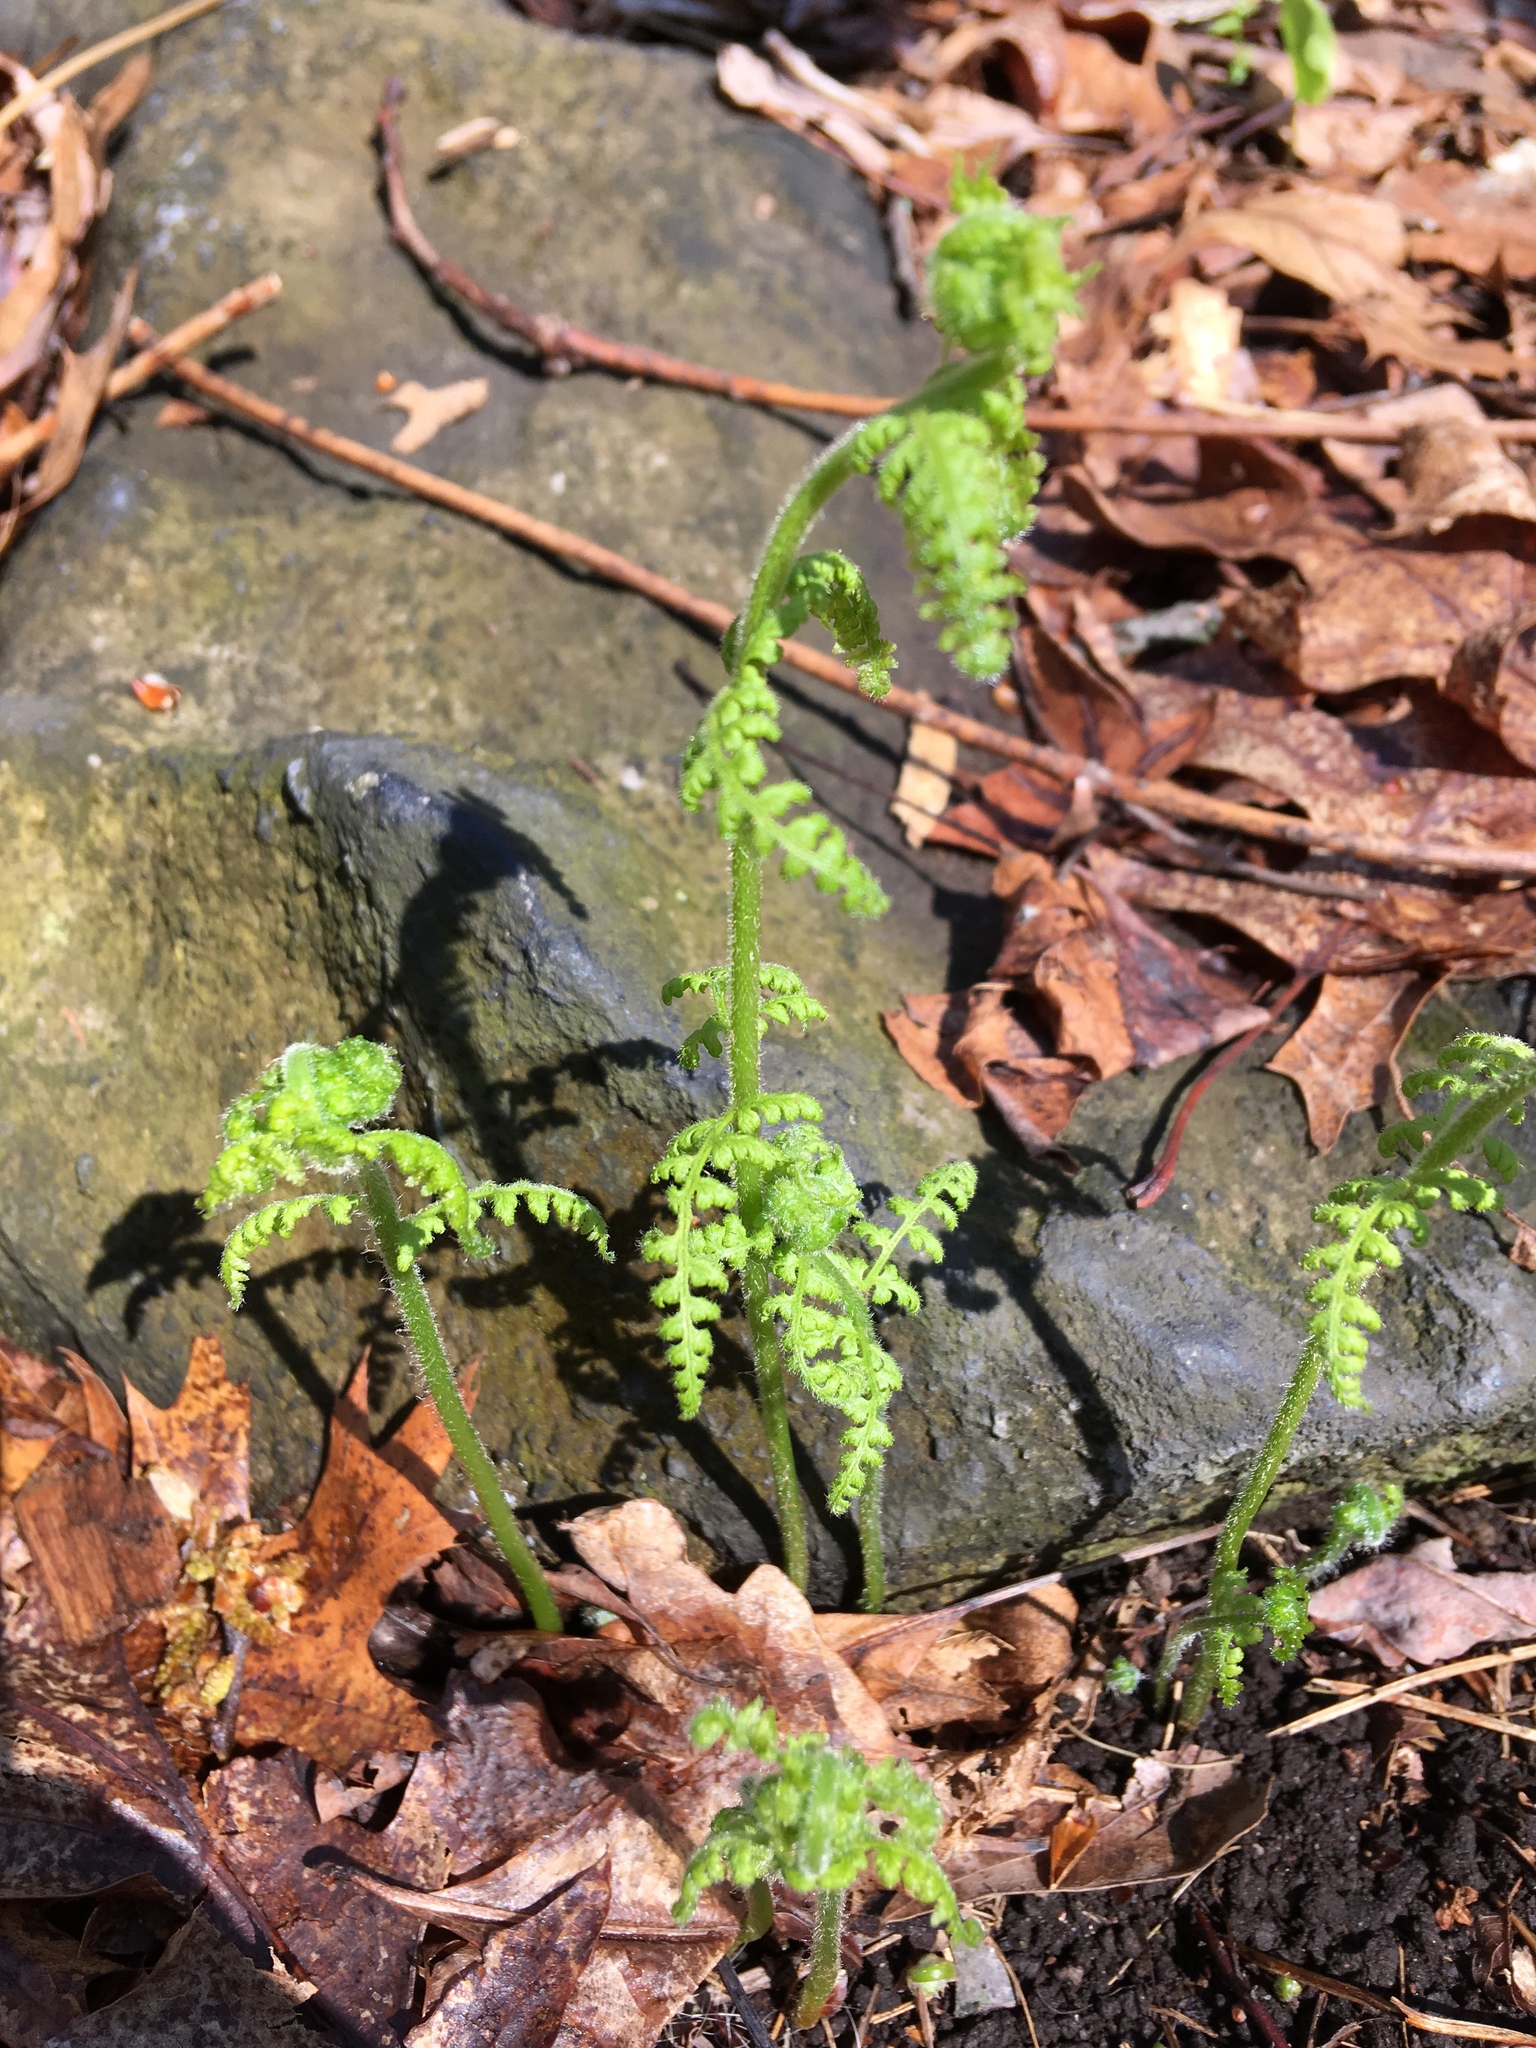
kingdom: Plantae
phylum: Tracheophyta
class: Polypodiopsida
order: Polypodiales
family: Dennstaedtiaceae
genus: Sitobolium
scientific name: Sitobolium punctilobum
